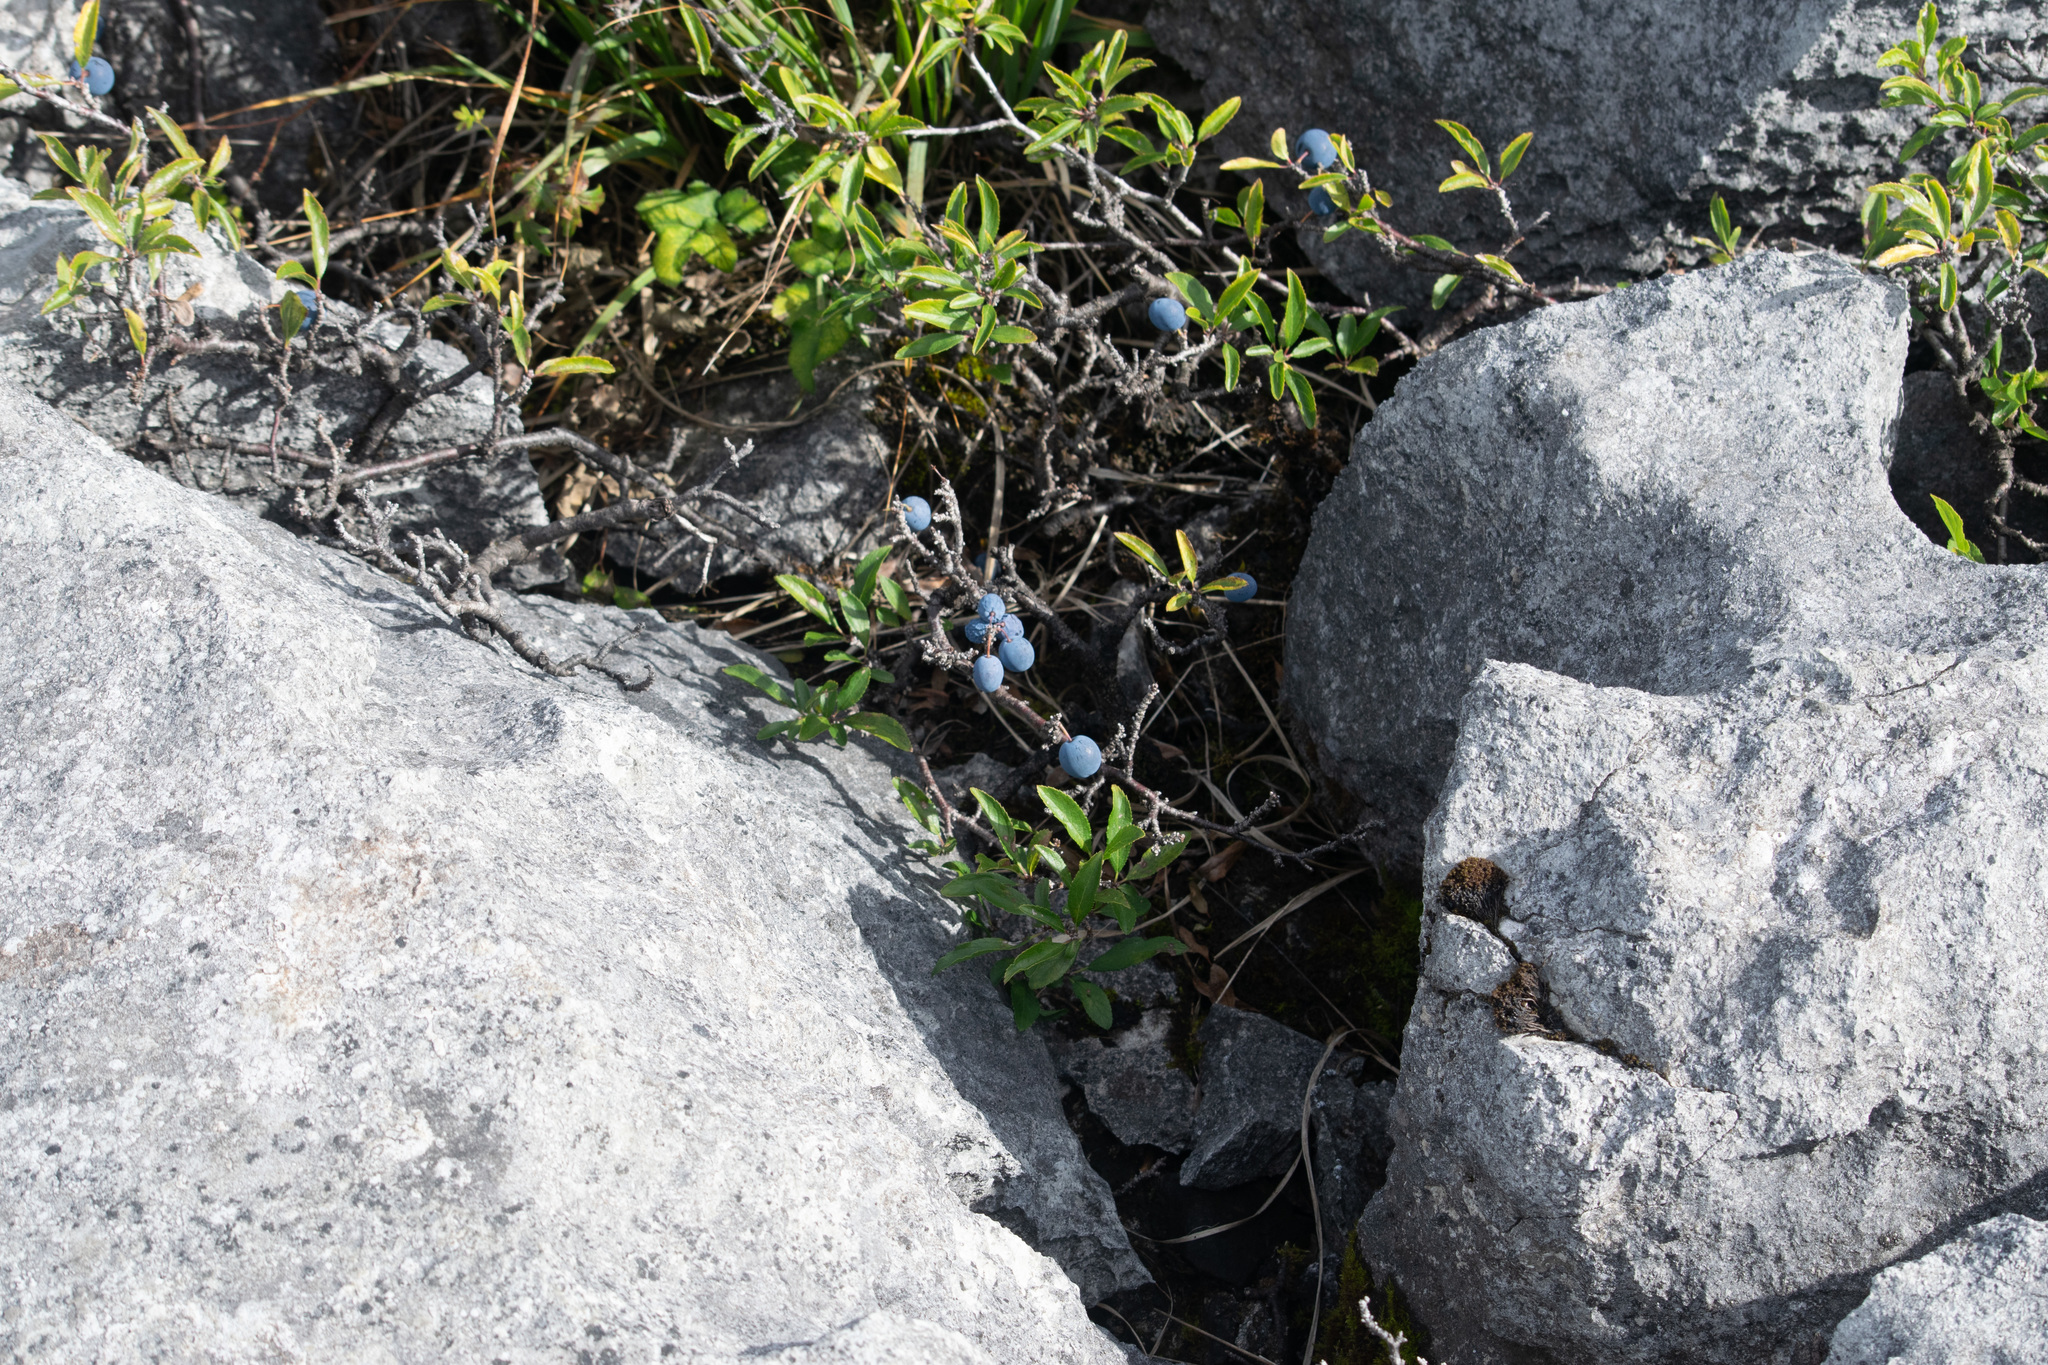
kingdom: Plantae
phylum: Tracheophyta
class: Magnoliopsida
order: Rosales
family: Rosaceae
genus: Prunus
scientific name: Prunus spinosa
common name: Blackthorn
